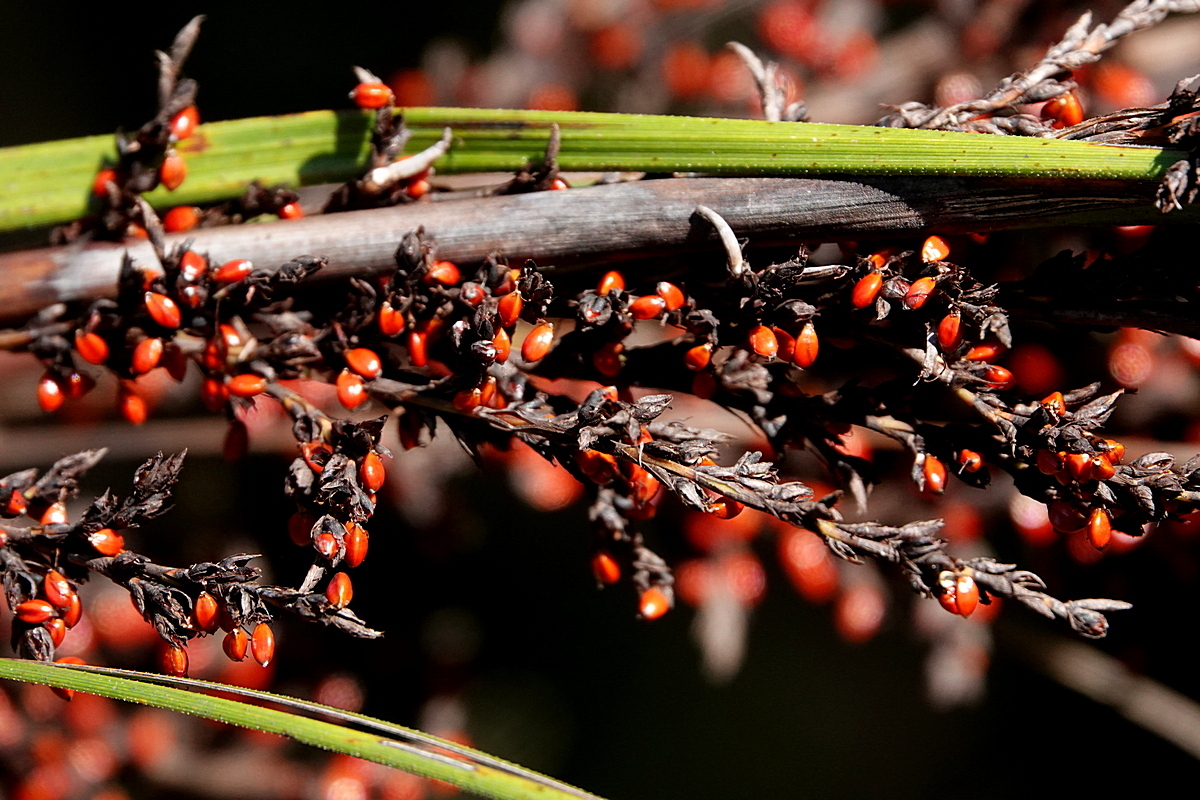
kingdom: Plantae
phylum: Tracheophyta
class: Liliopsida
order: Poales
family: Cyperaceae
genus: Gahnia
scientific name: Gahnia sieberiana
